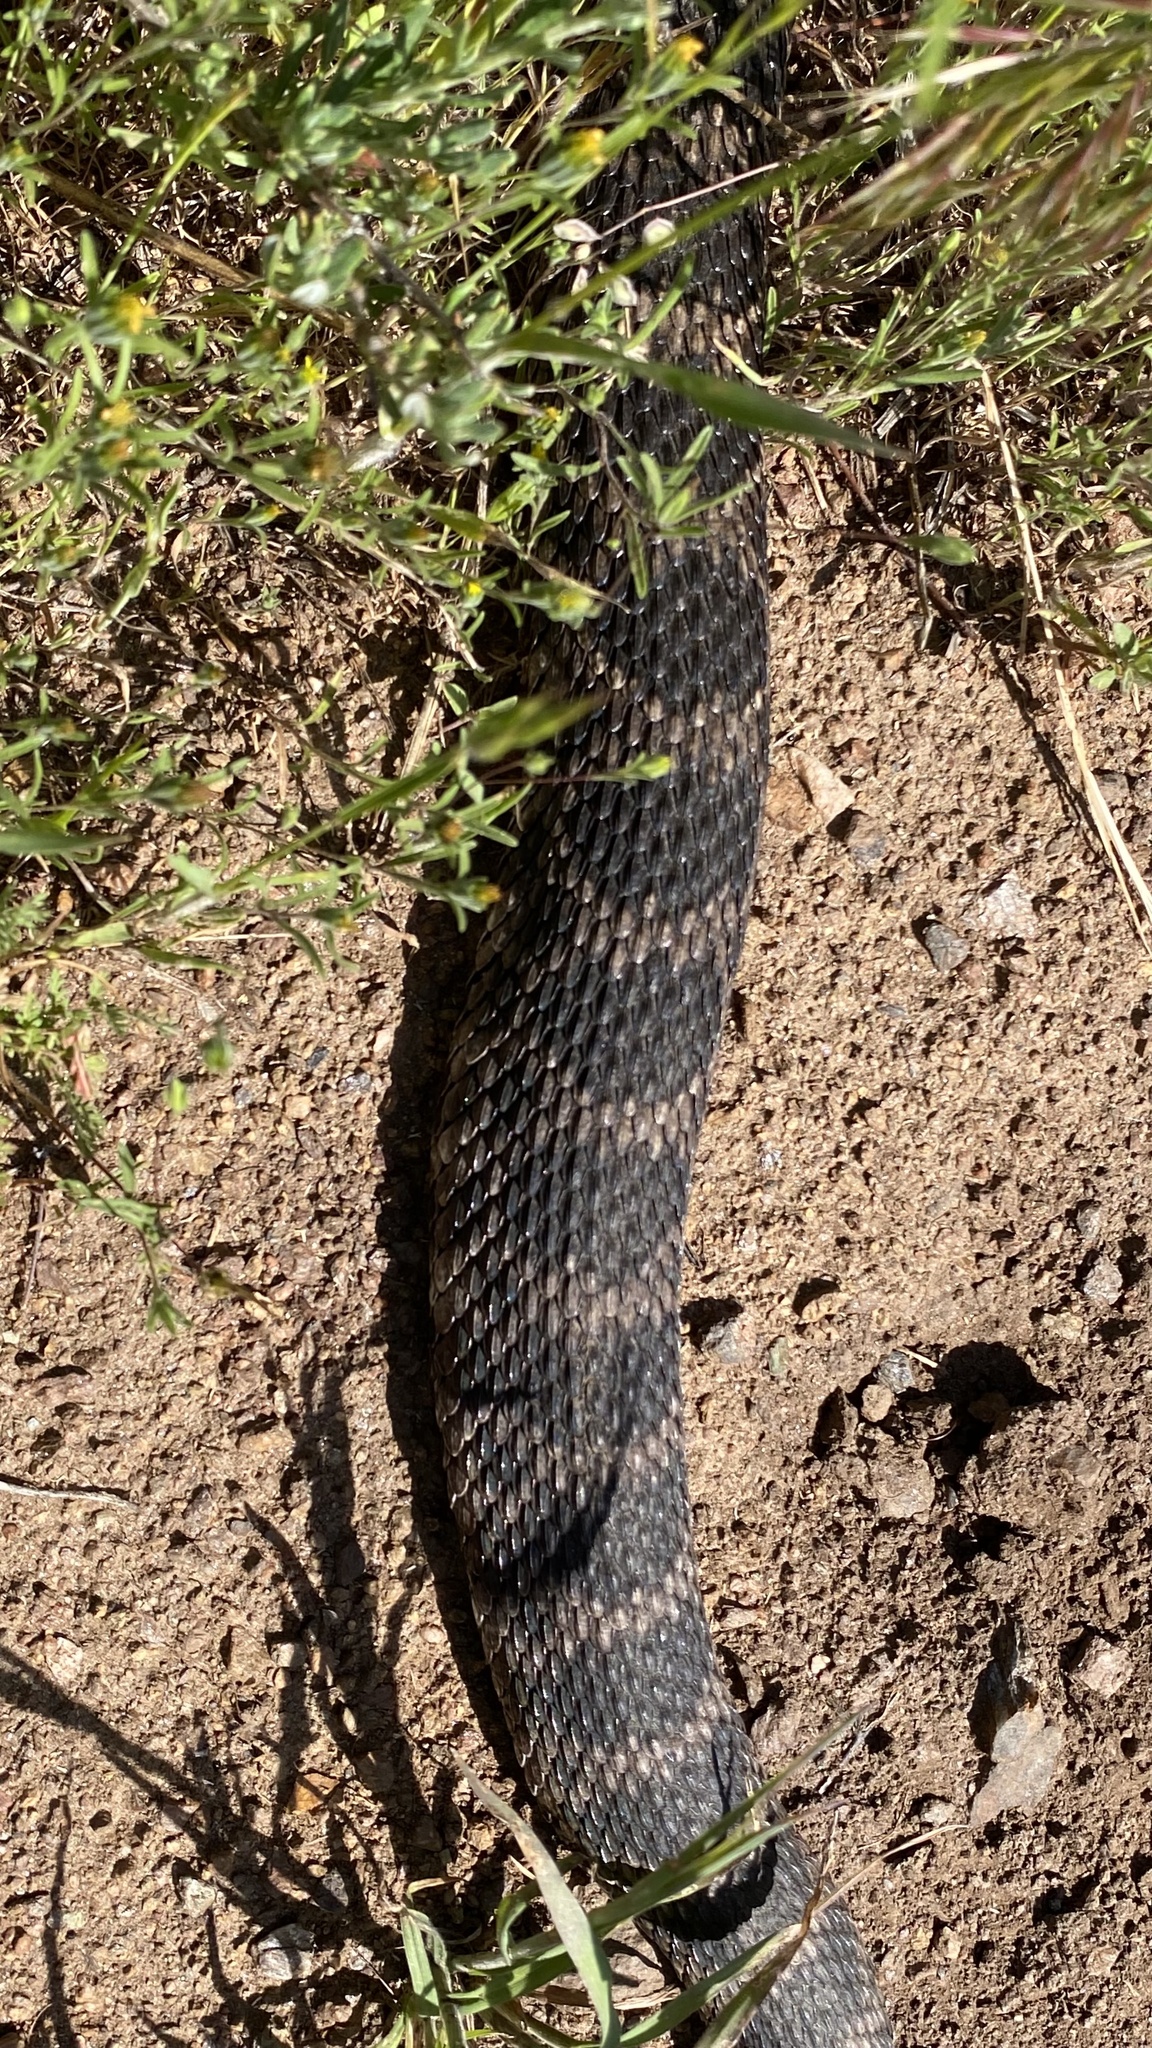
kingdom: Animalia
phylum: Chordata
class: Squamata
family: Viperidae
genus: Crotalus
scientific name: Crotalus oreganus
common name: Abyssus
